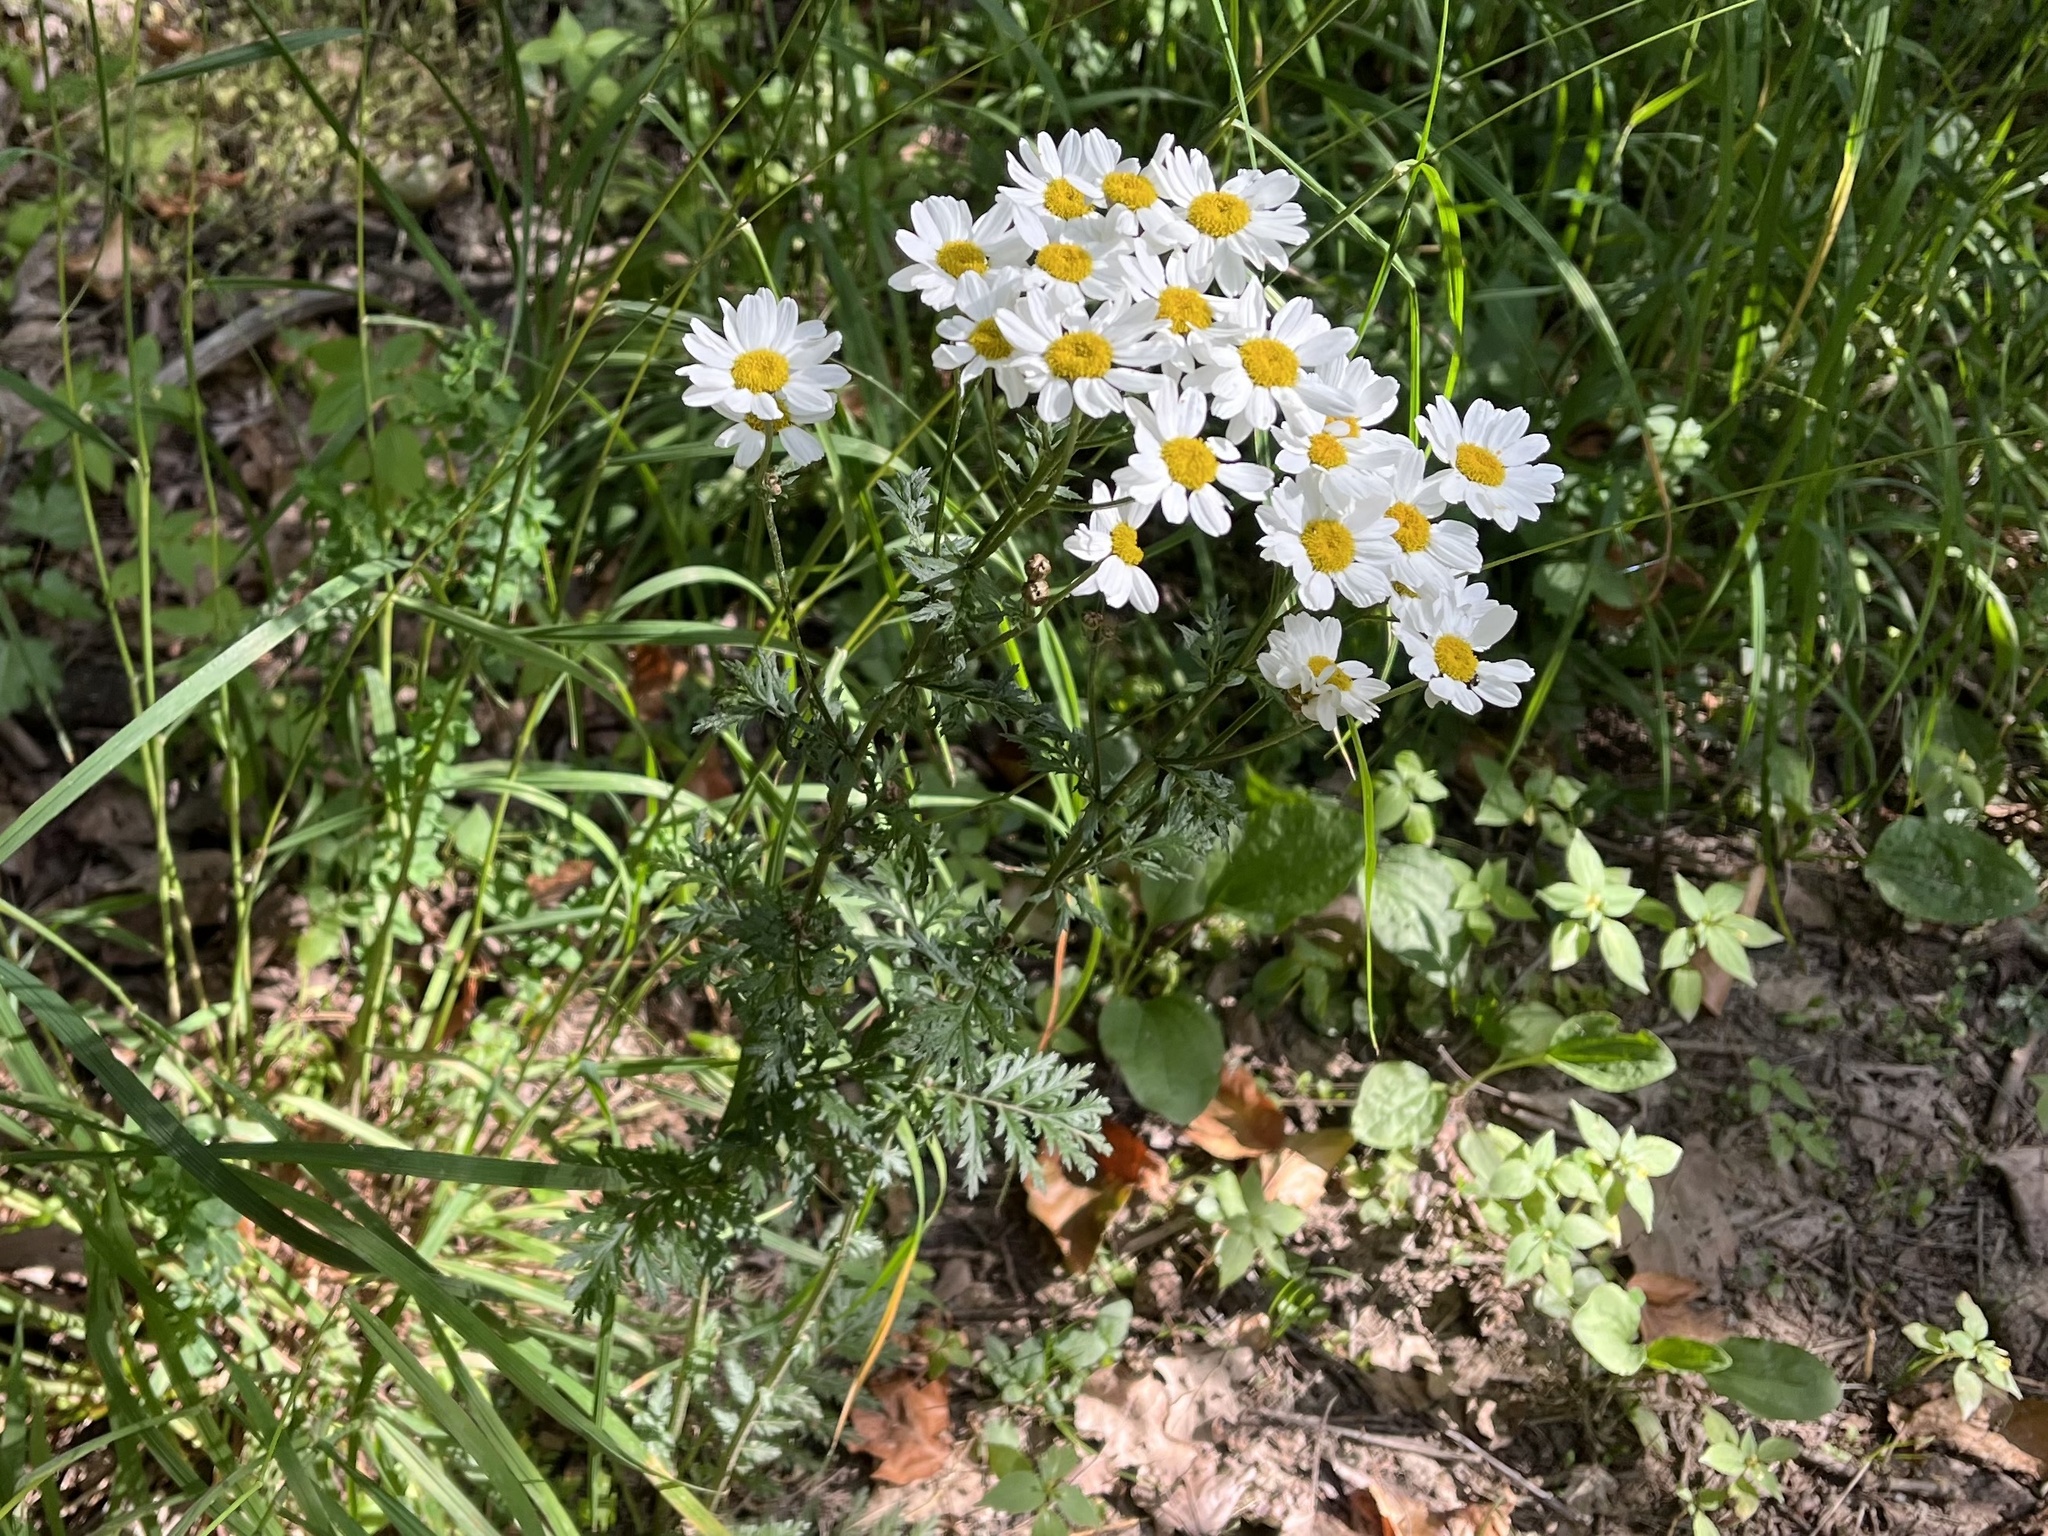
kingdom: Plantae
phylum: Tracheophyta
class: Magnoliopsida
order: Asterales
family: Asteraceae
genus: Tanacetum
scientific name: Tanacetum corymbosum
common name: Scentless feverfew
